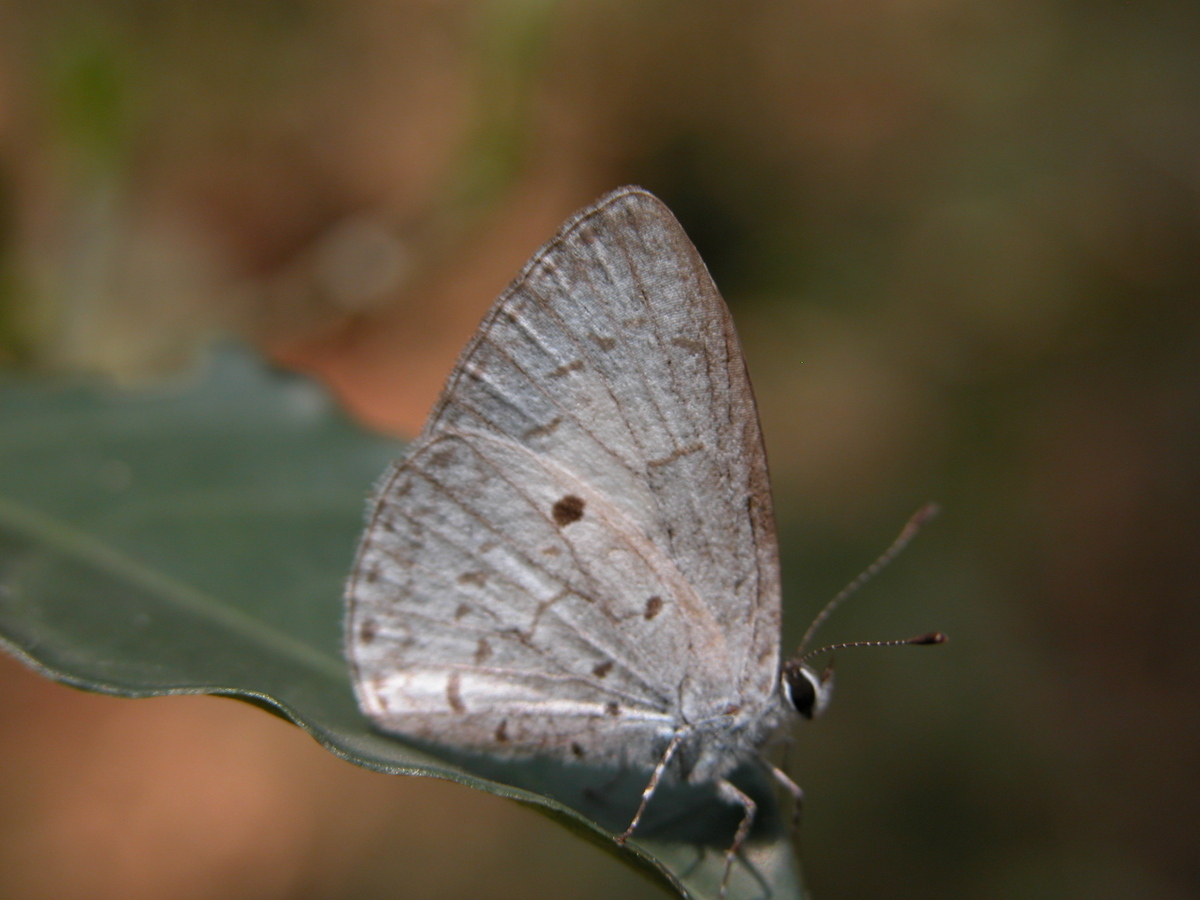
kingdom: Animalia
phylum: Arthropoda
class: Insecta
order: Lepidoptera
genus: Lestranicus
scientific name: Lestranicus transpectus
